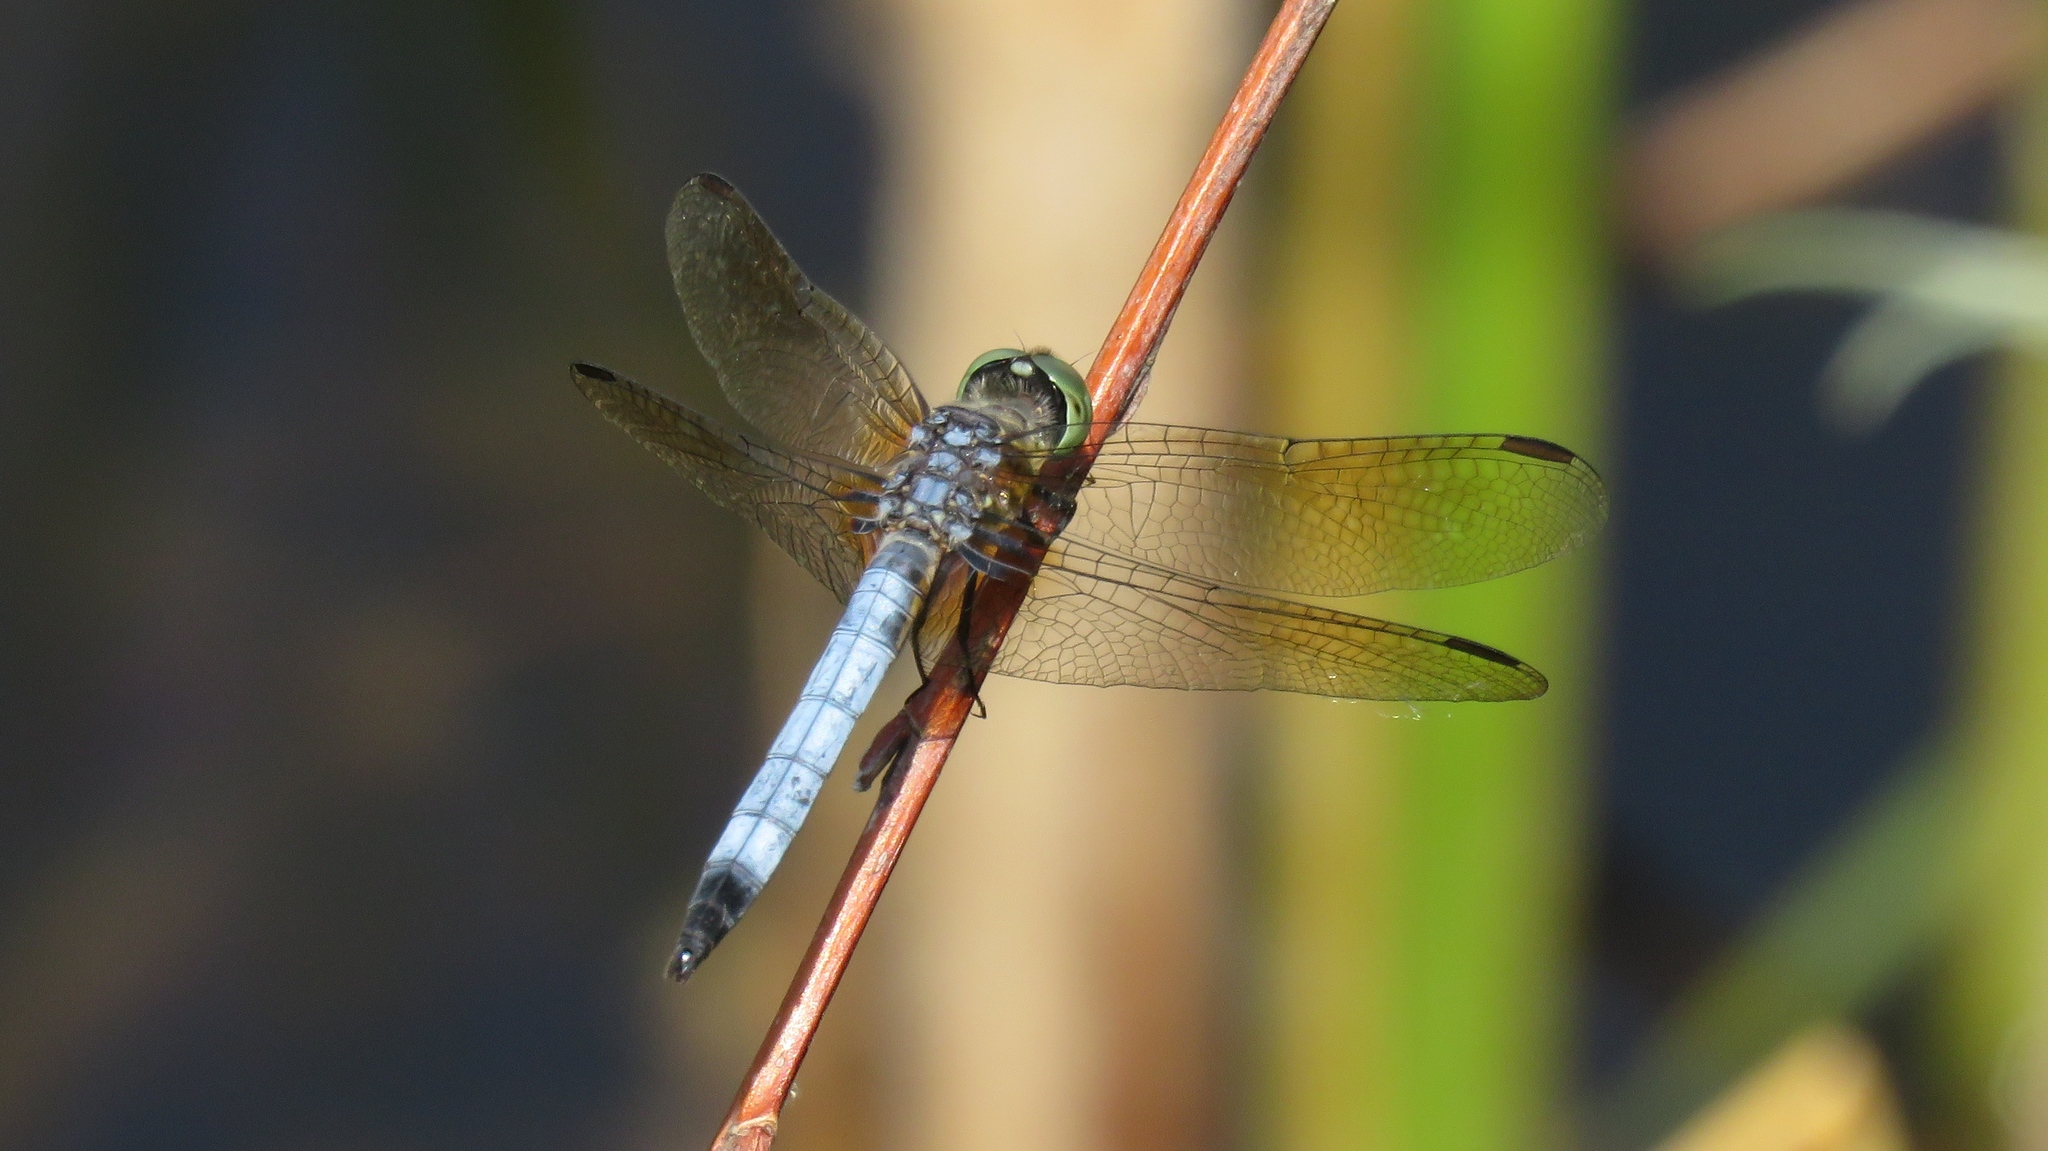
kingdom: Animalia
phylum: Arthropoda
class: Insecta
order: Odonata
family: Libellulidae
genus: Pachydiplax
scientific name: Pachydiplax longipennis
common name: Blue dasher
